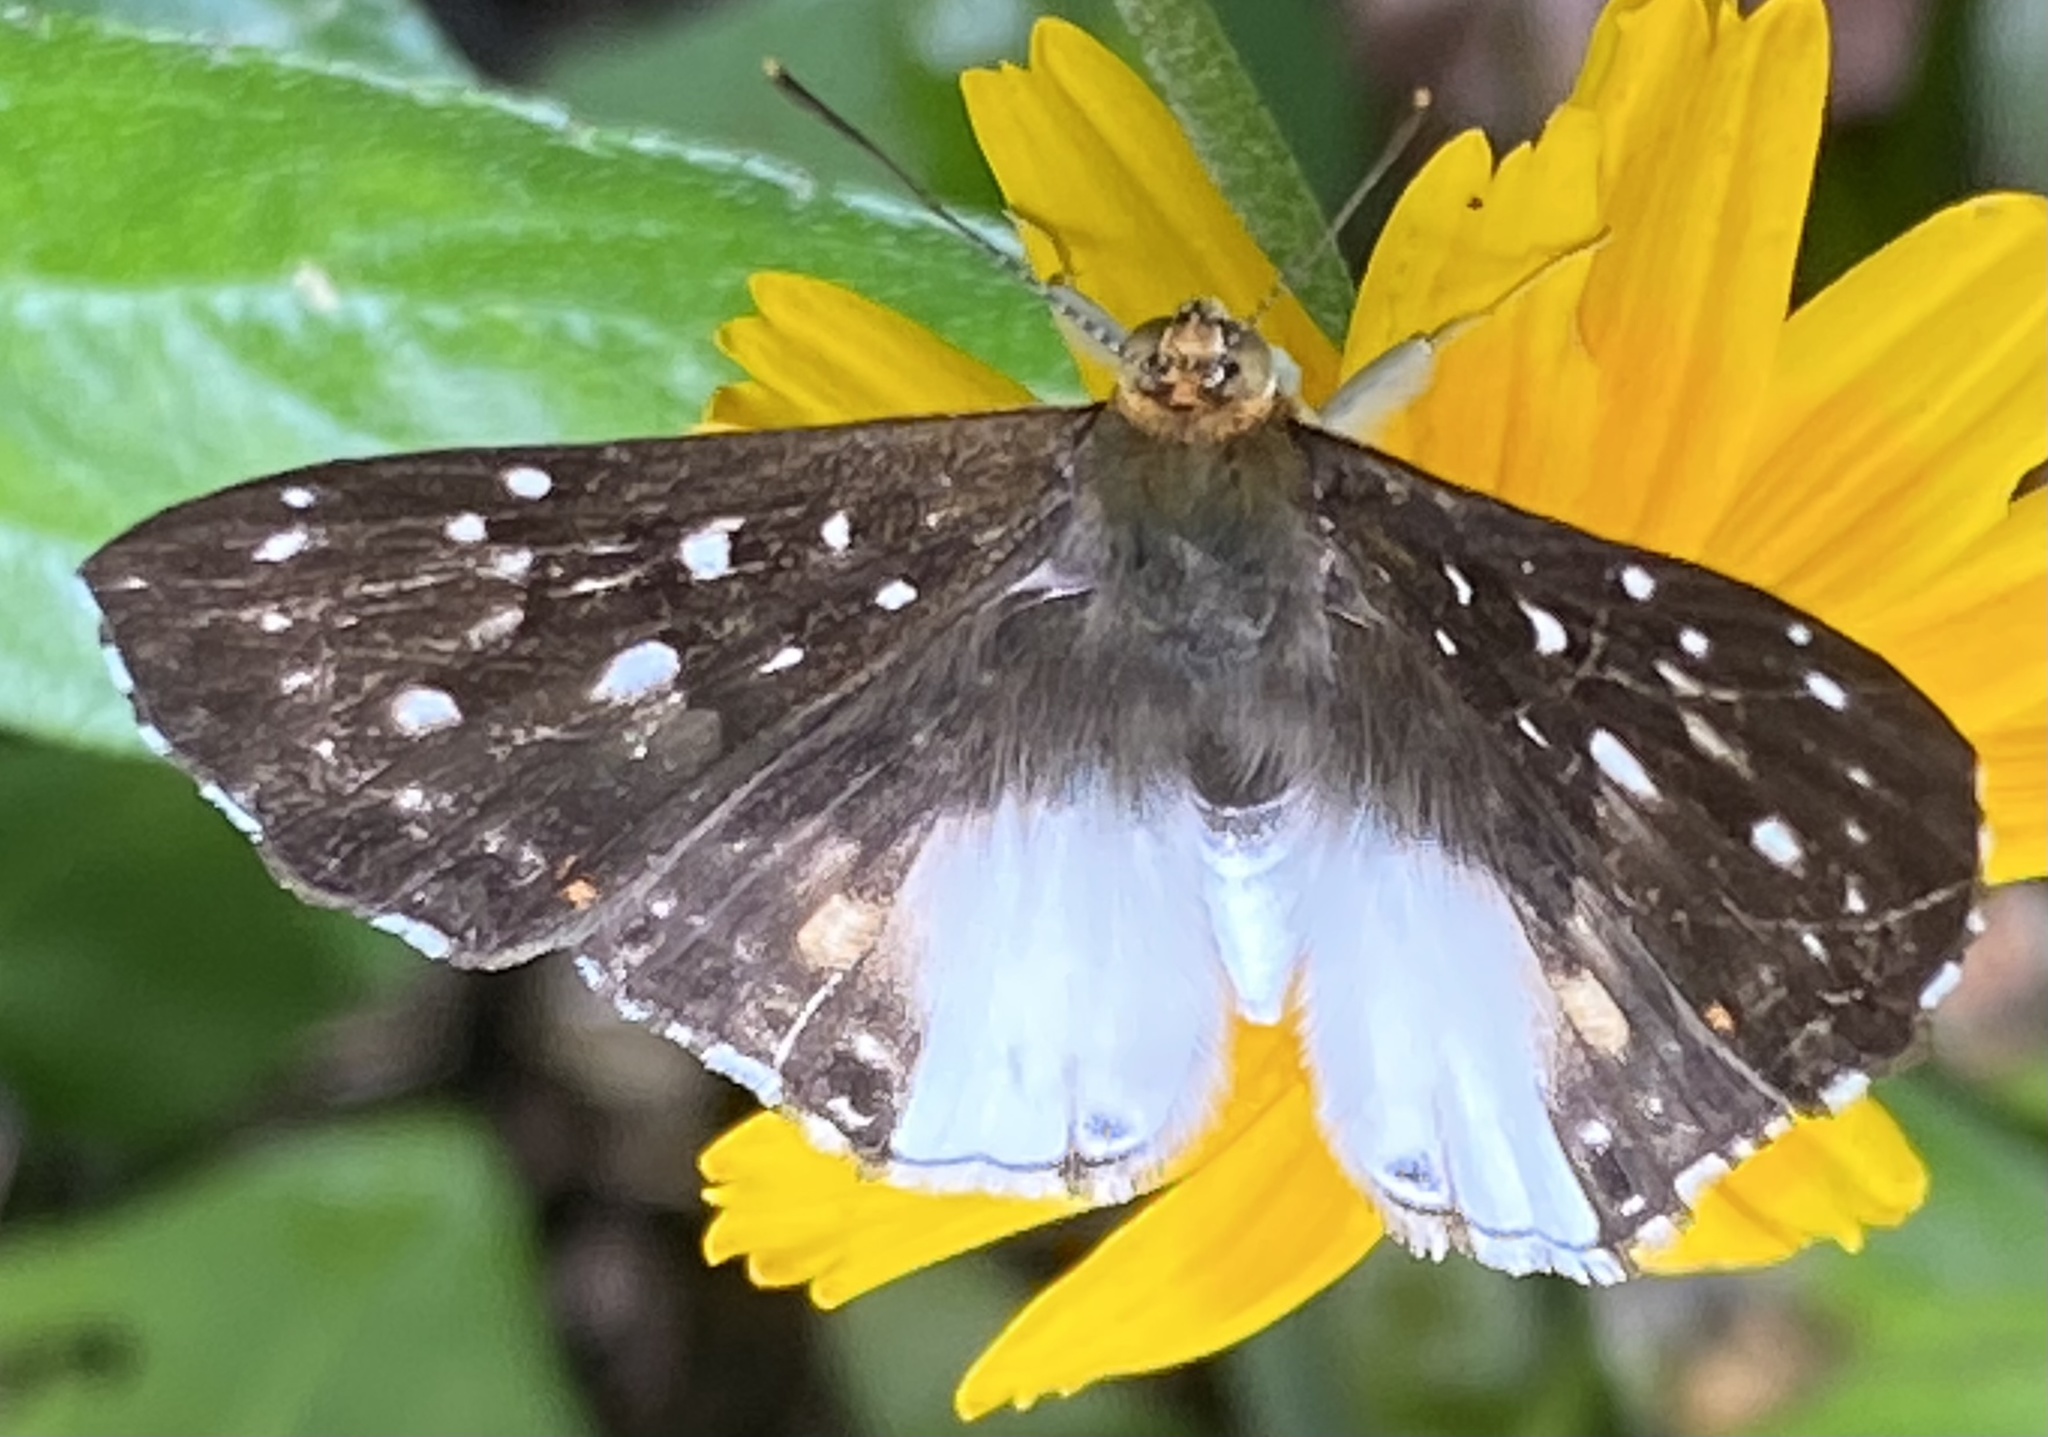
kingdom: Animalia
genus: Lemonias
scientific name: Lemonias zygia
